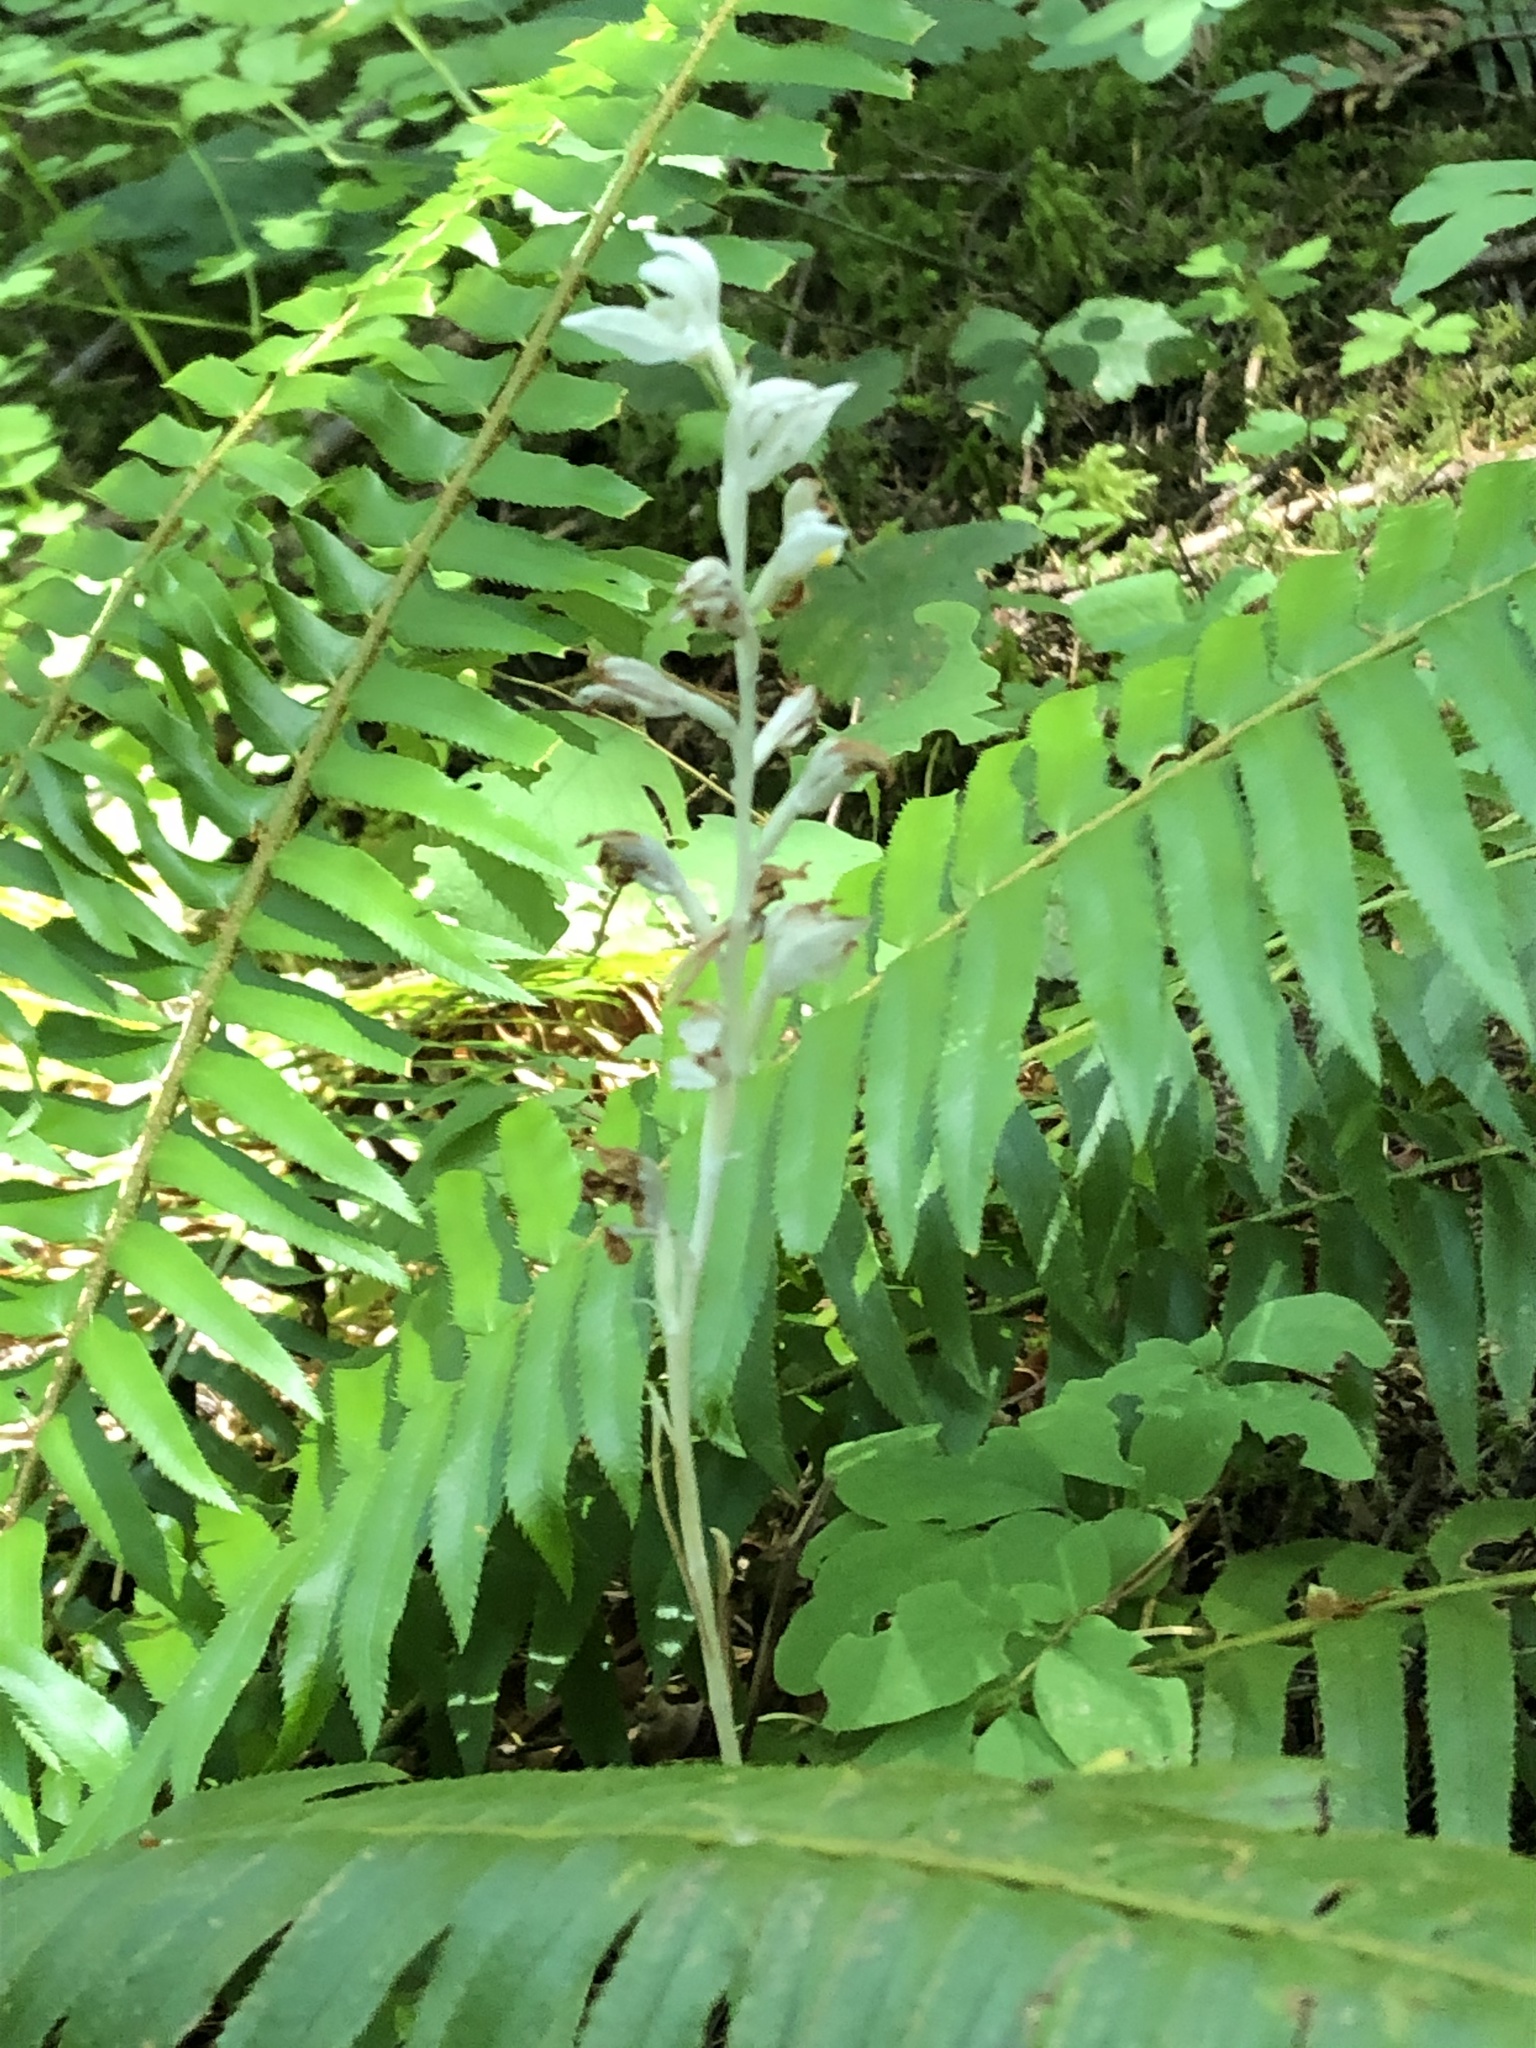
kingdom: Plantae
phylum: Tracheophyta
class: Liliopsida
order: Asparagales
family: Orchidaceae
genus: Cephalanthera
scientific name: Cephalanthera austiniae
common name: Phantom orchid
